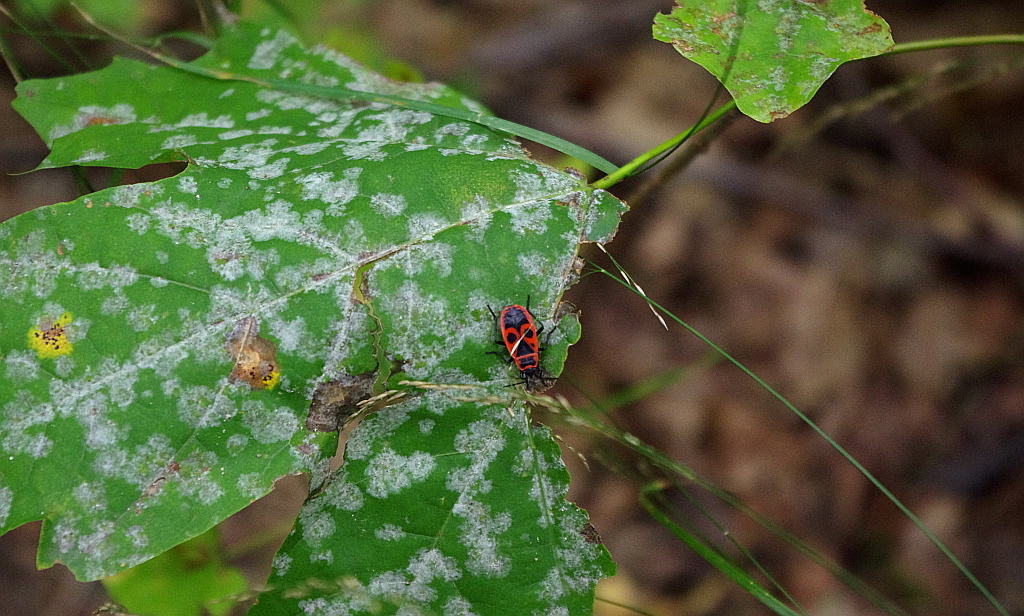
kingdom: Plantae
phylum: Tracheophyta
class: Magnoliopsida
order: Sapindales
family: Sapindaceae
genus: Acer
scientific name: Acer platanoides
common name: Norway maple
